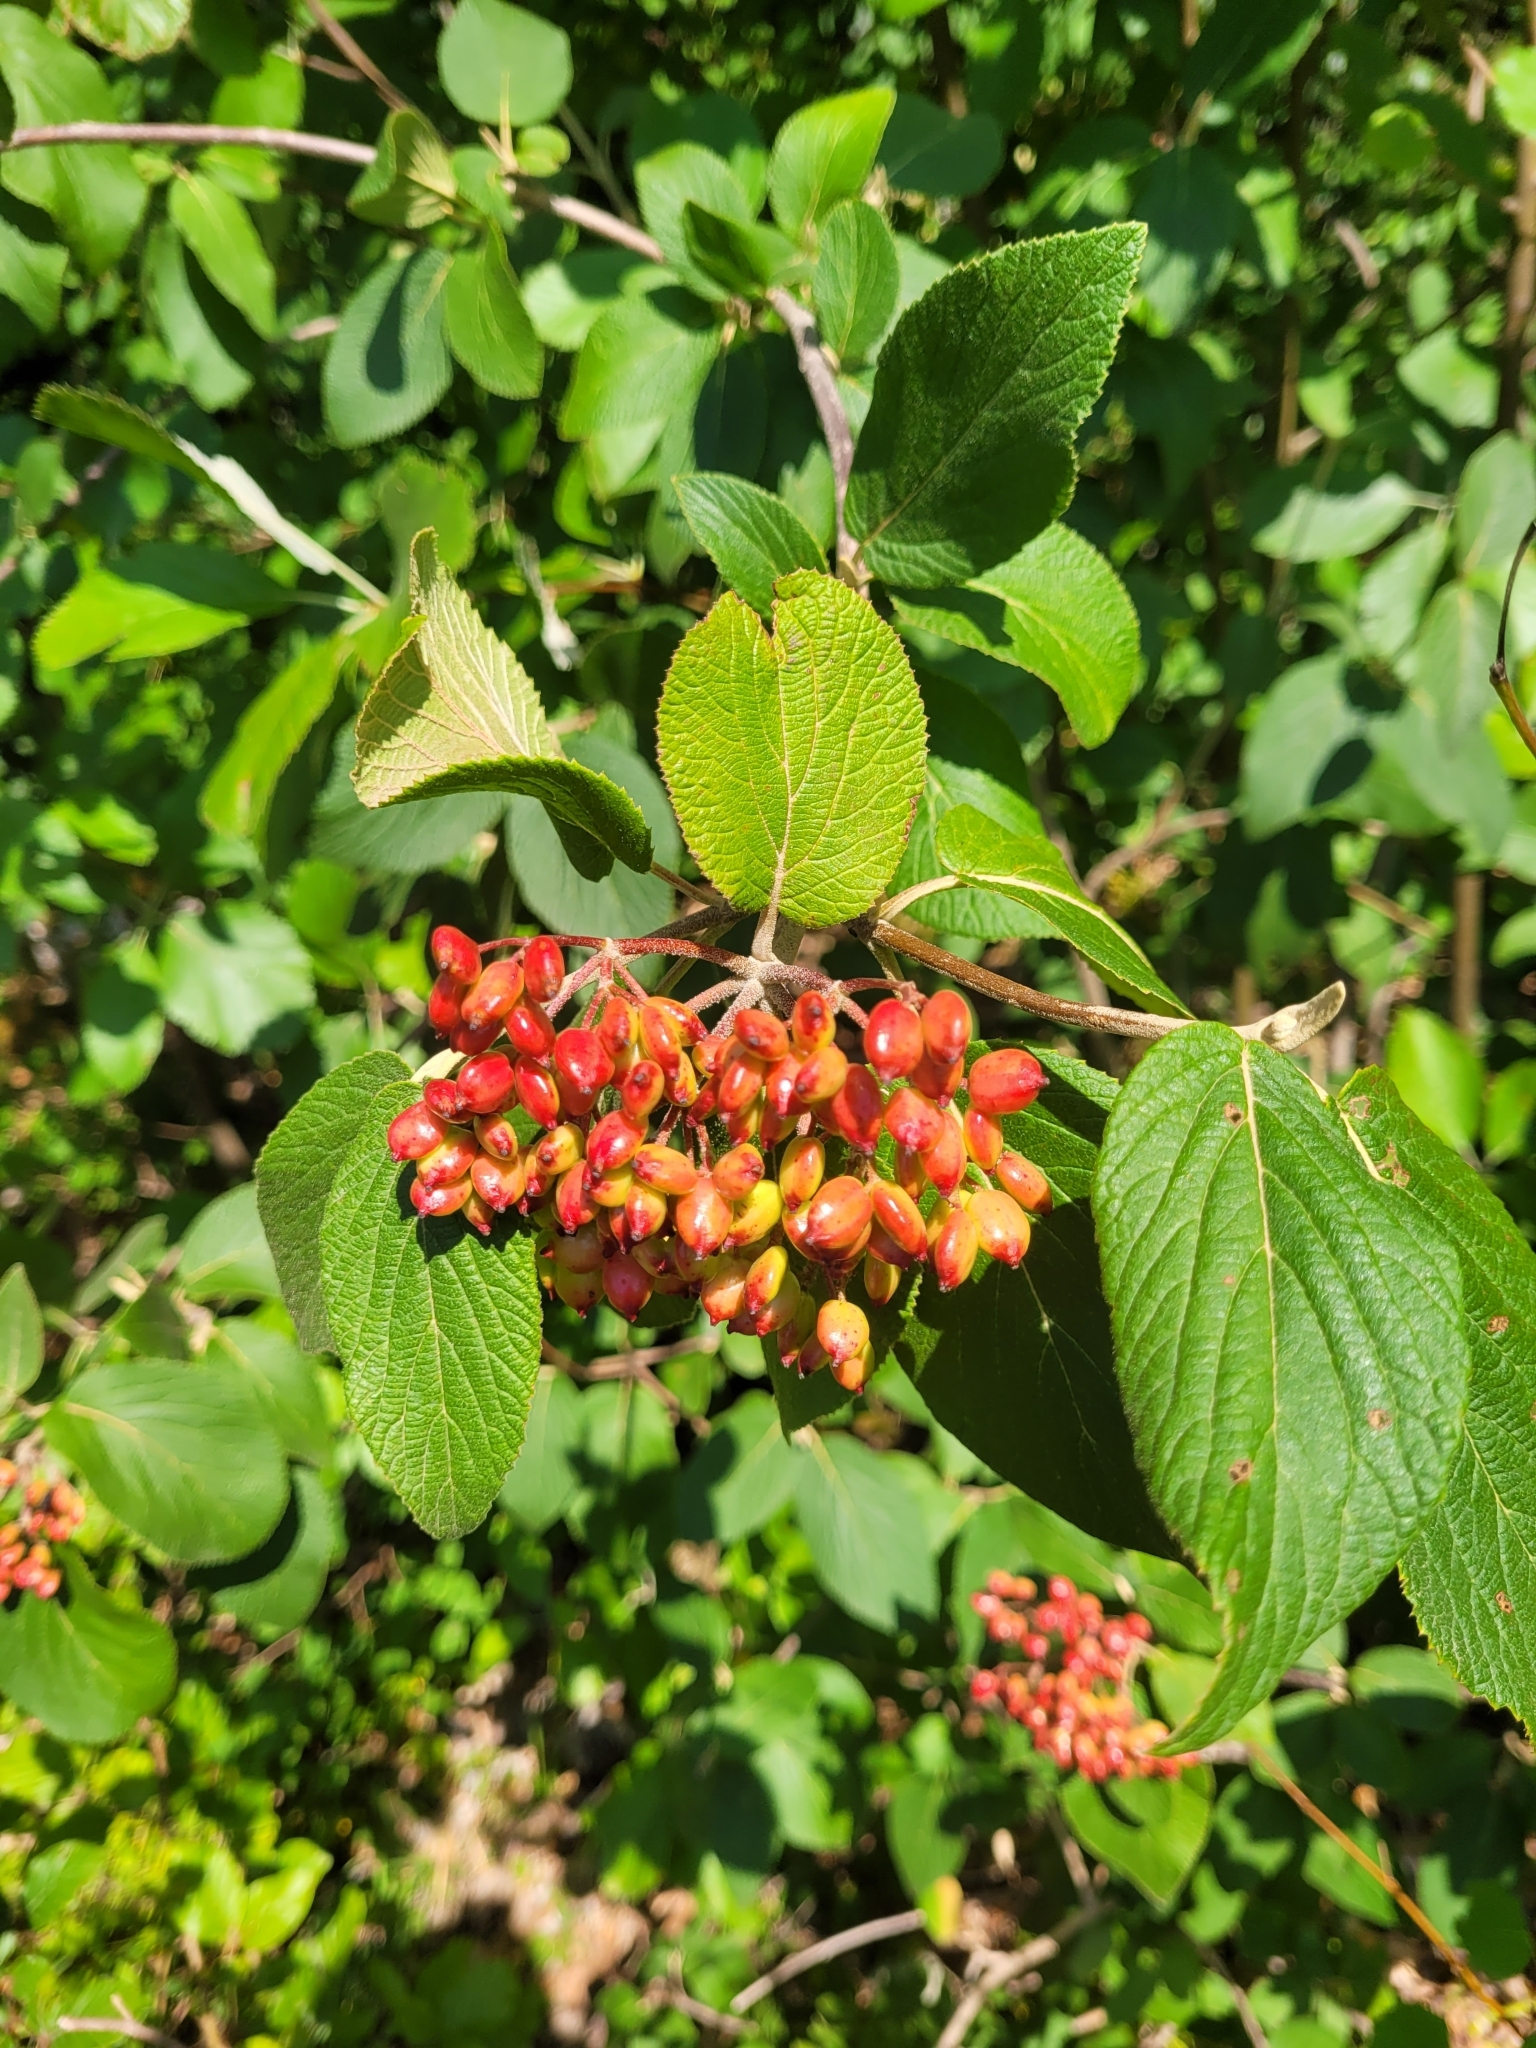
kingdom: Plantae
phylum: Tracheophyta
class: Magnoliopsida
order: Dipsacales
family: Viburnaceae
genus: Viburnum
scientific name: Viburnum lantana
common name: Wayfaring tree
